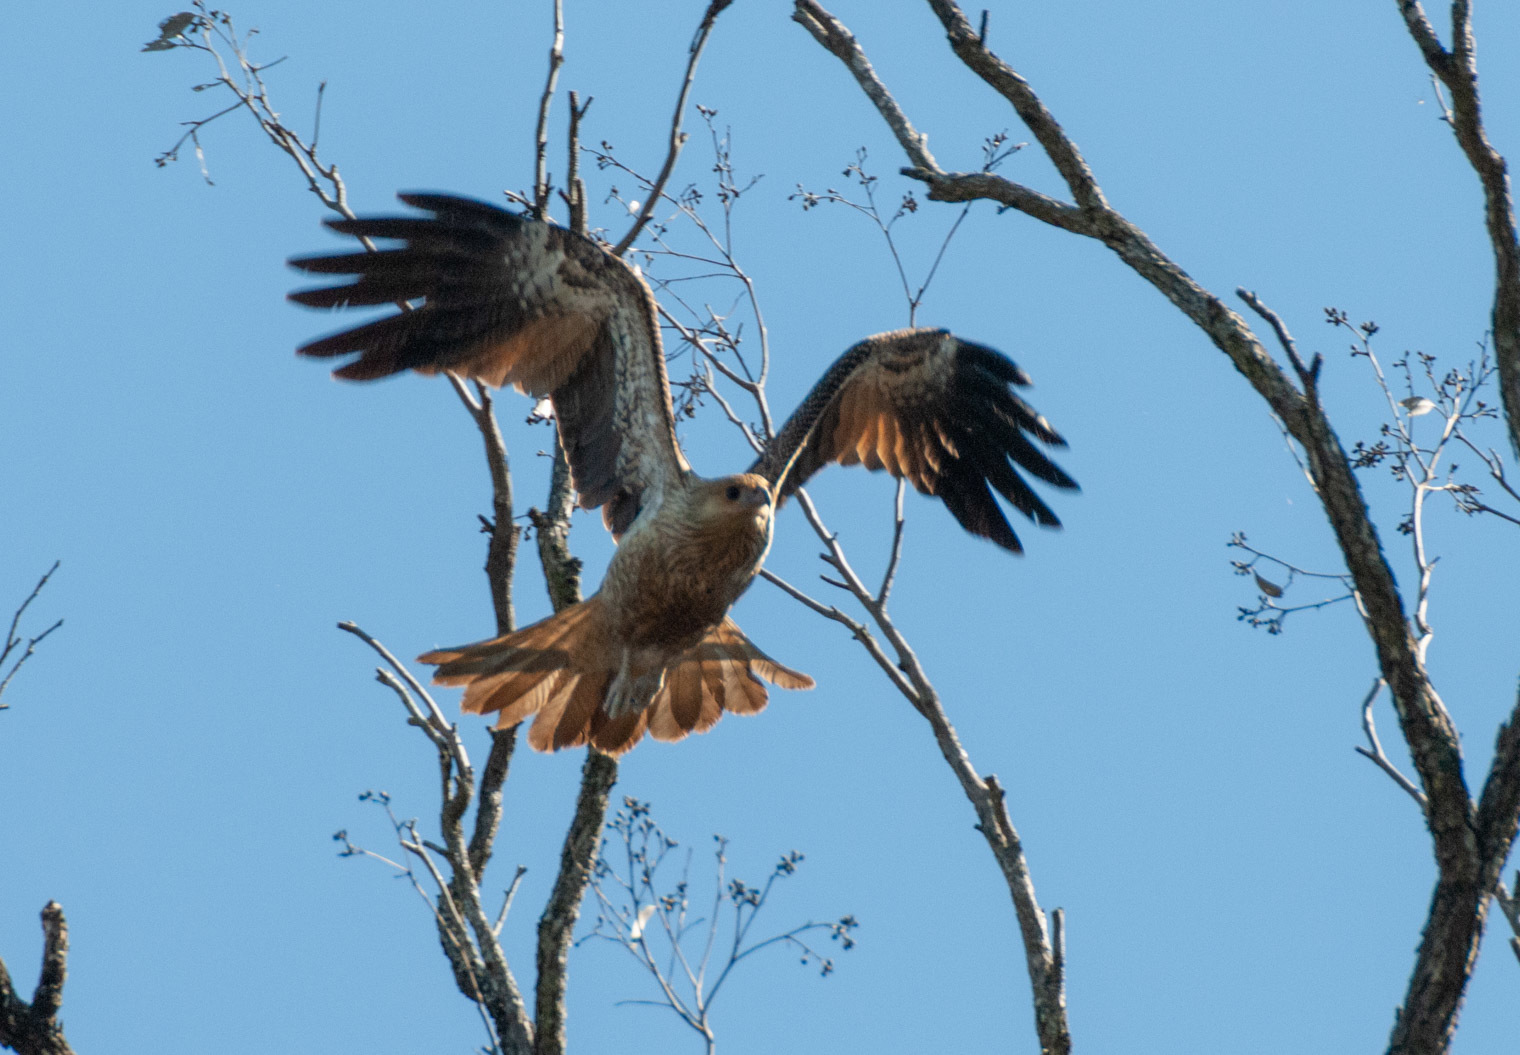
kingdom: Animalia
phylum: Chordata
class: Aves
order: Accipitriformes
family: Accipitridae
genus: Haliastur
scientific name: Haliastur sphenurus
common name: Whistling kite
